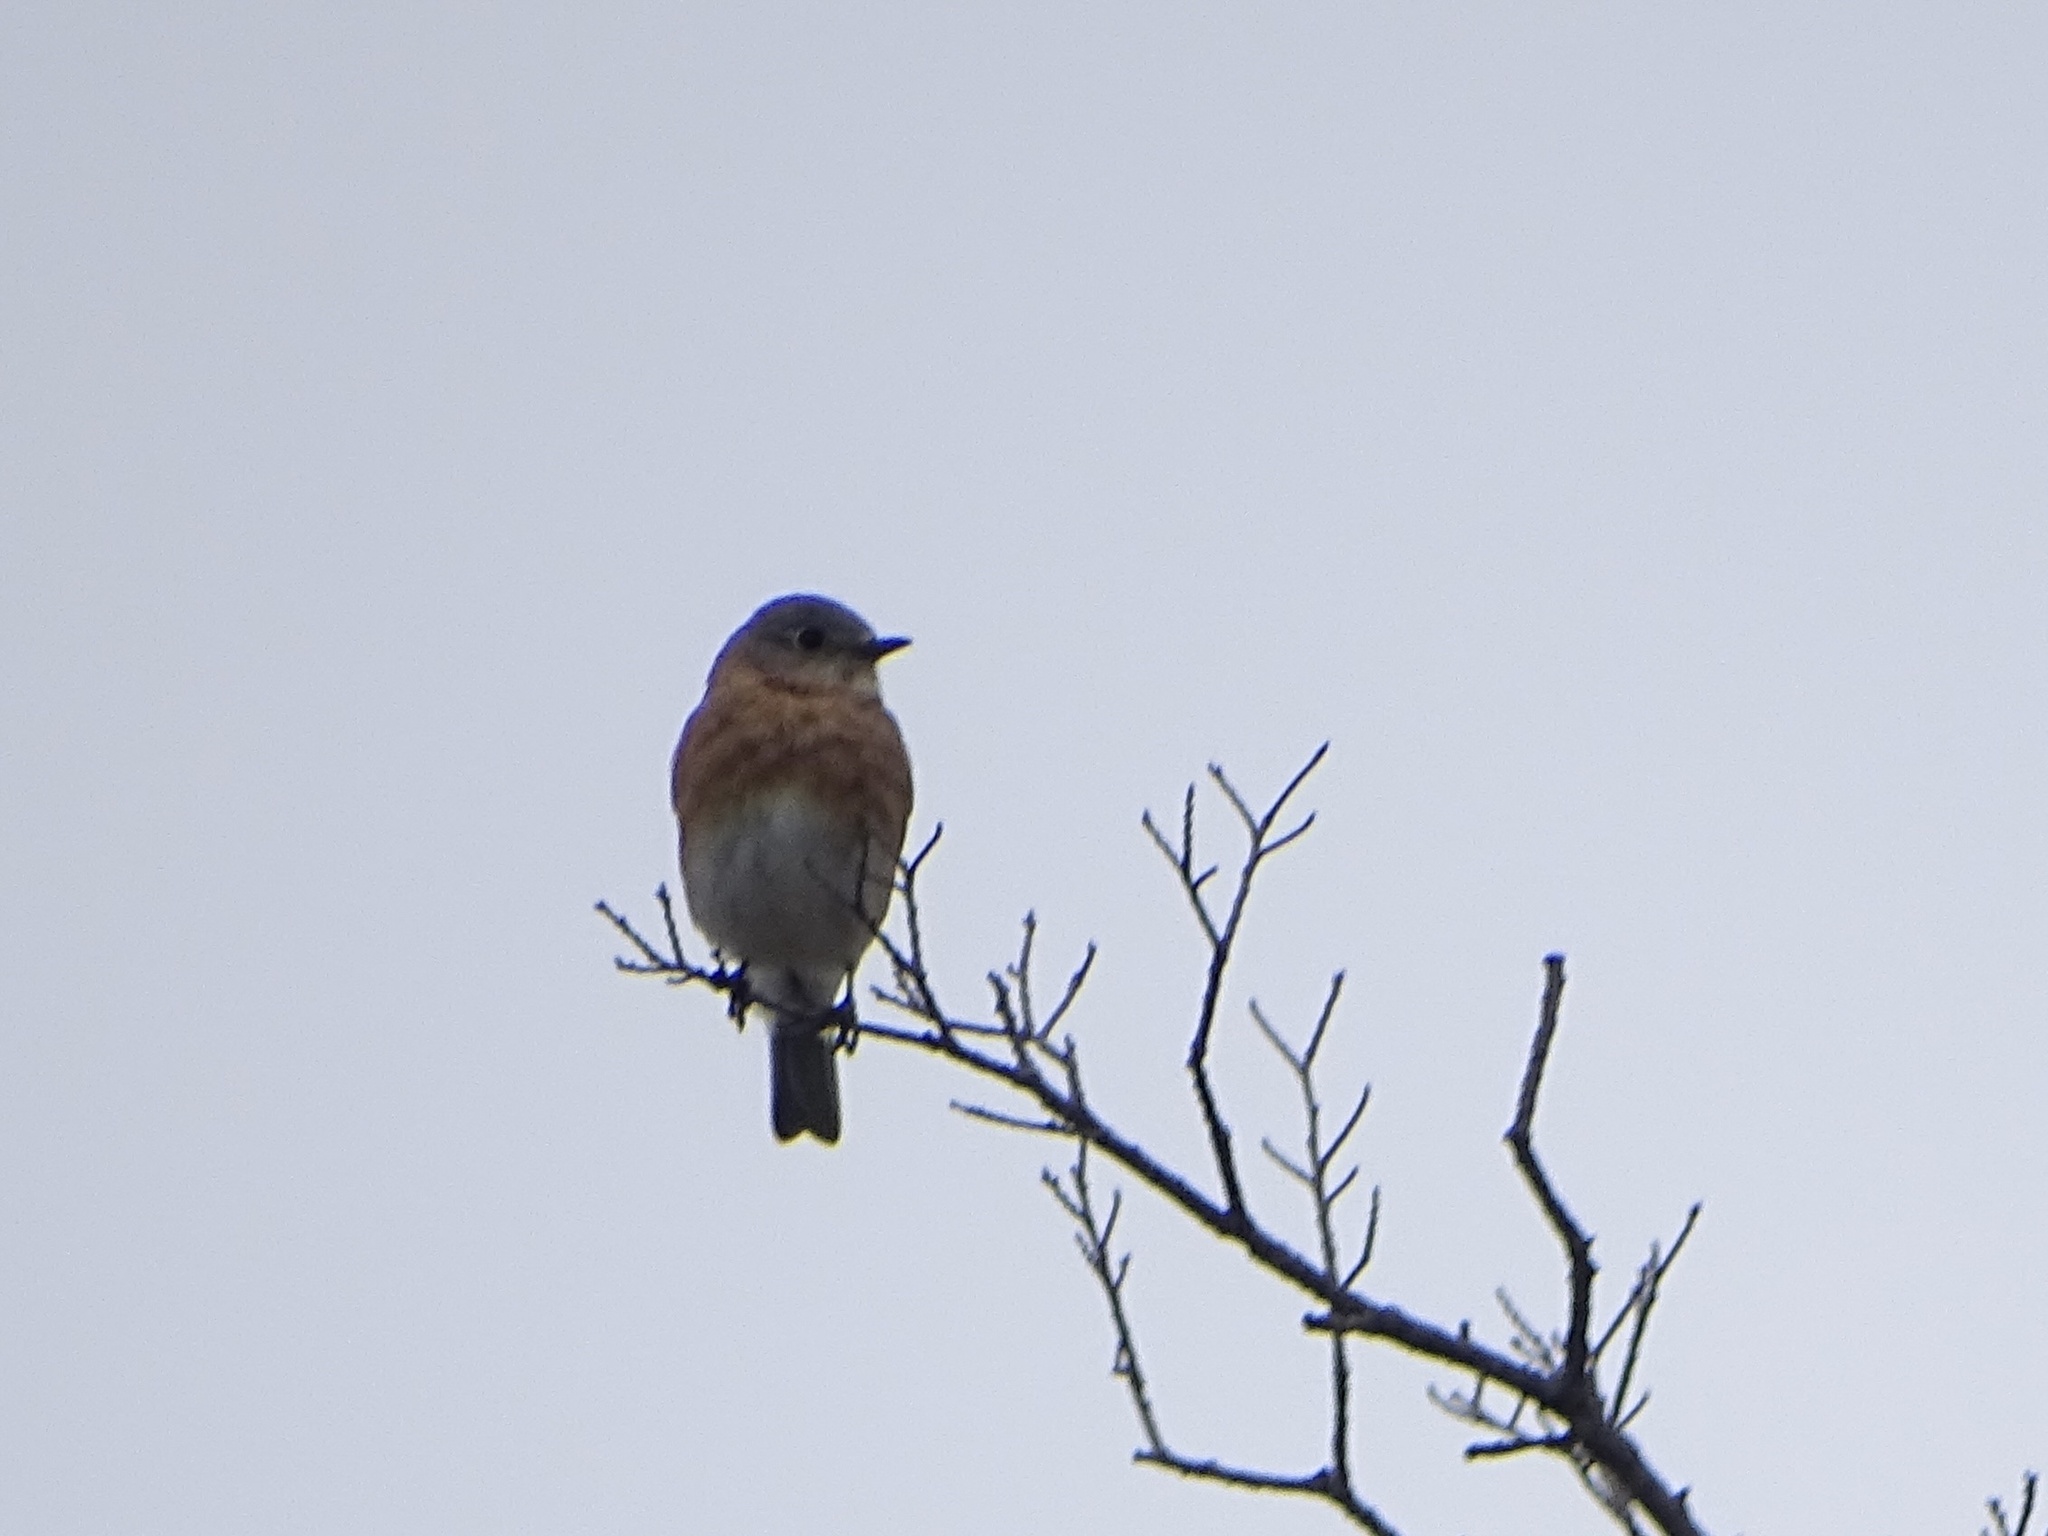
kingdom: Animalia
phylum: Chordata
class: Aves
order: Passeriformes
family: Turdidae
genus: Sialia
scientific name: Sialia sialis
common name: Eastern bluebird
